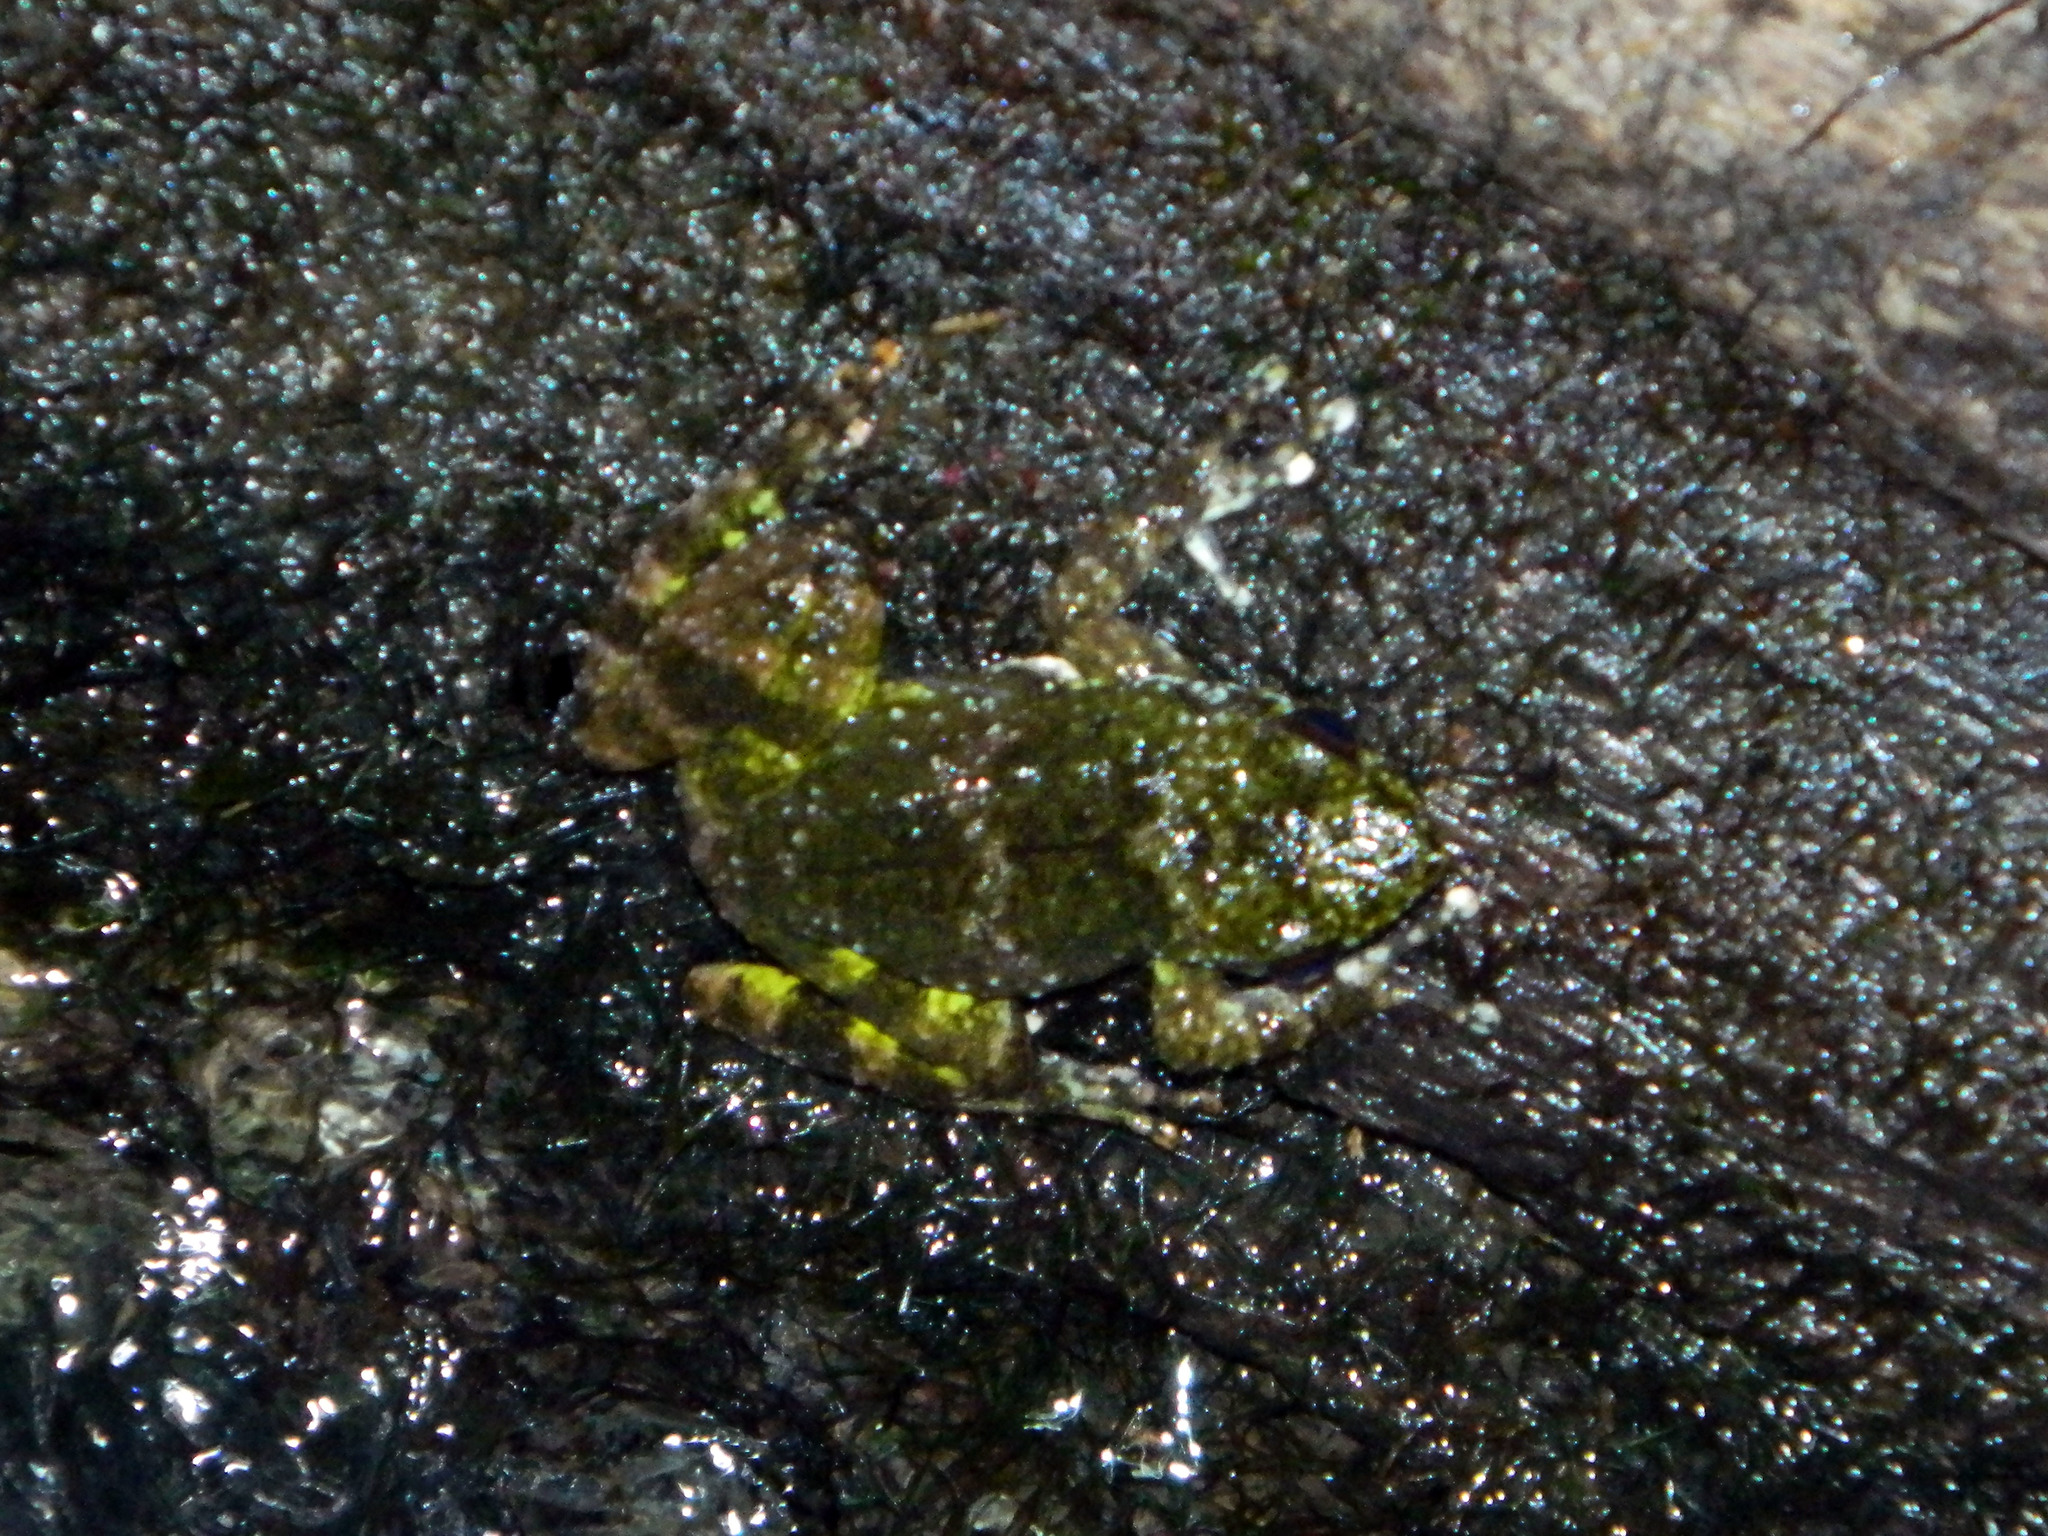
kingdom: Animalia
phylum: Chordata
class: Amphibia
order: Anura
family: Mantellidae
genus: Mantidactylus
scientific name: Mantidactylus lugubris
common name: Dumeril's madagascar frog
